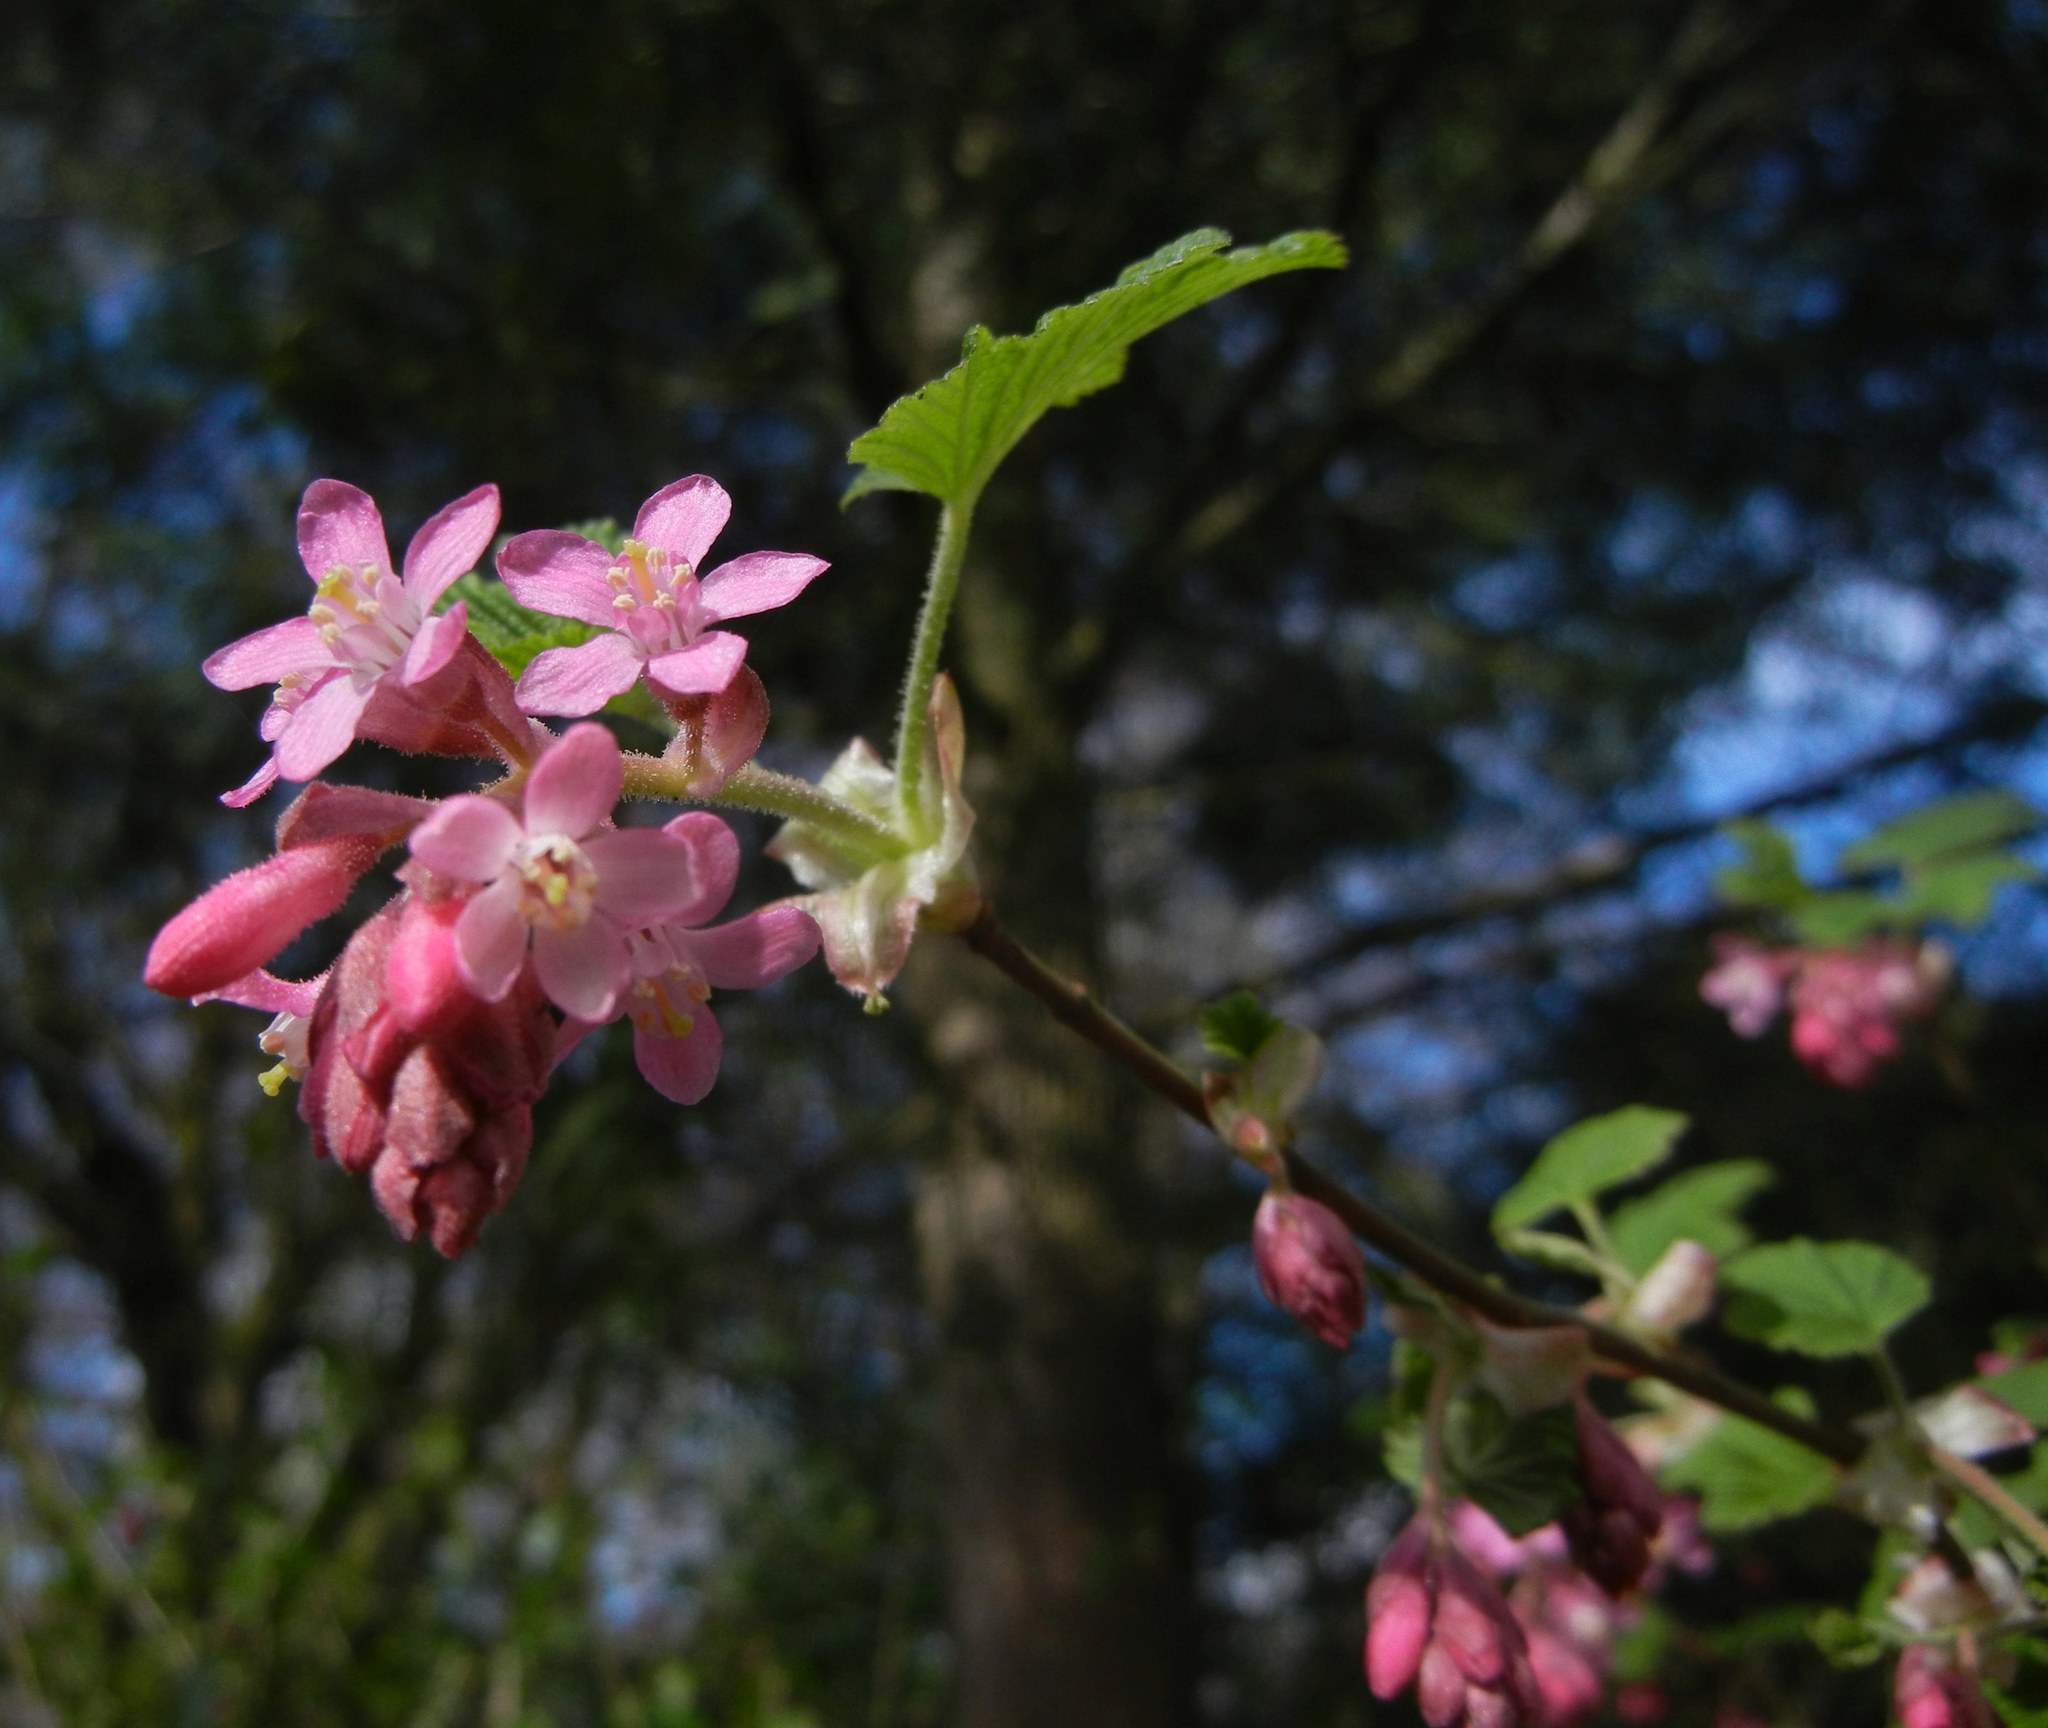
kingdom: Plantae
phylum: Tracheophyta
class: Magnoliopsida
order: Saxifragales
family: Grossulariaceae
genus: Ribes
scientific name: Ribes sanguineum
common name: Flowering currant
